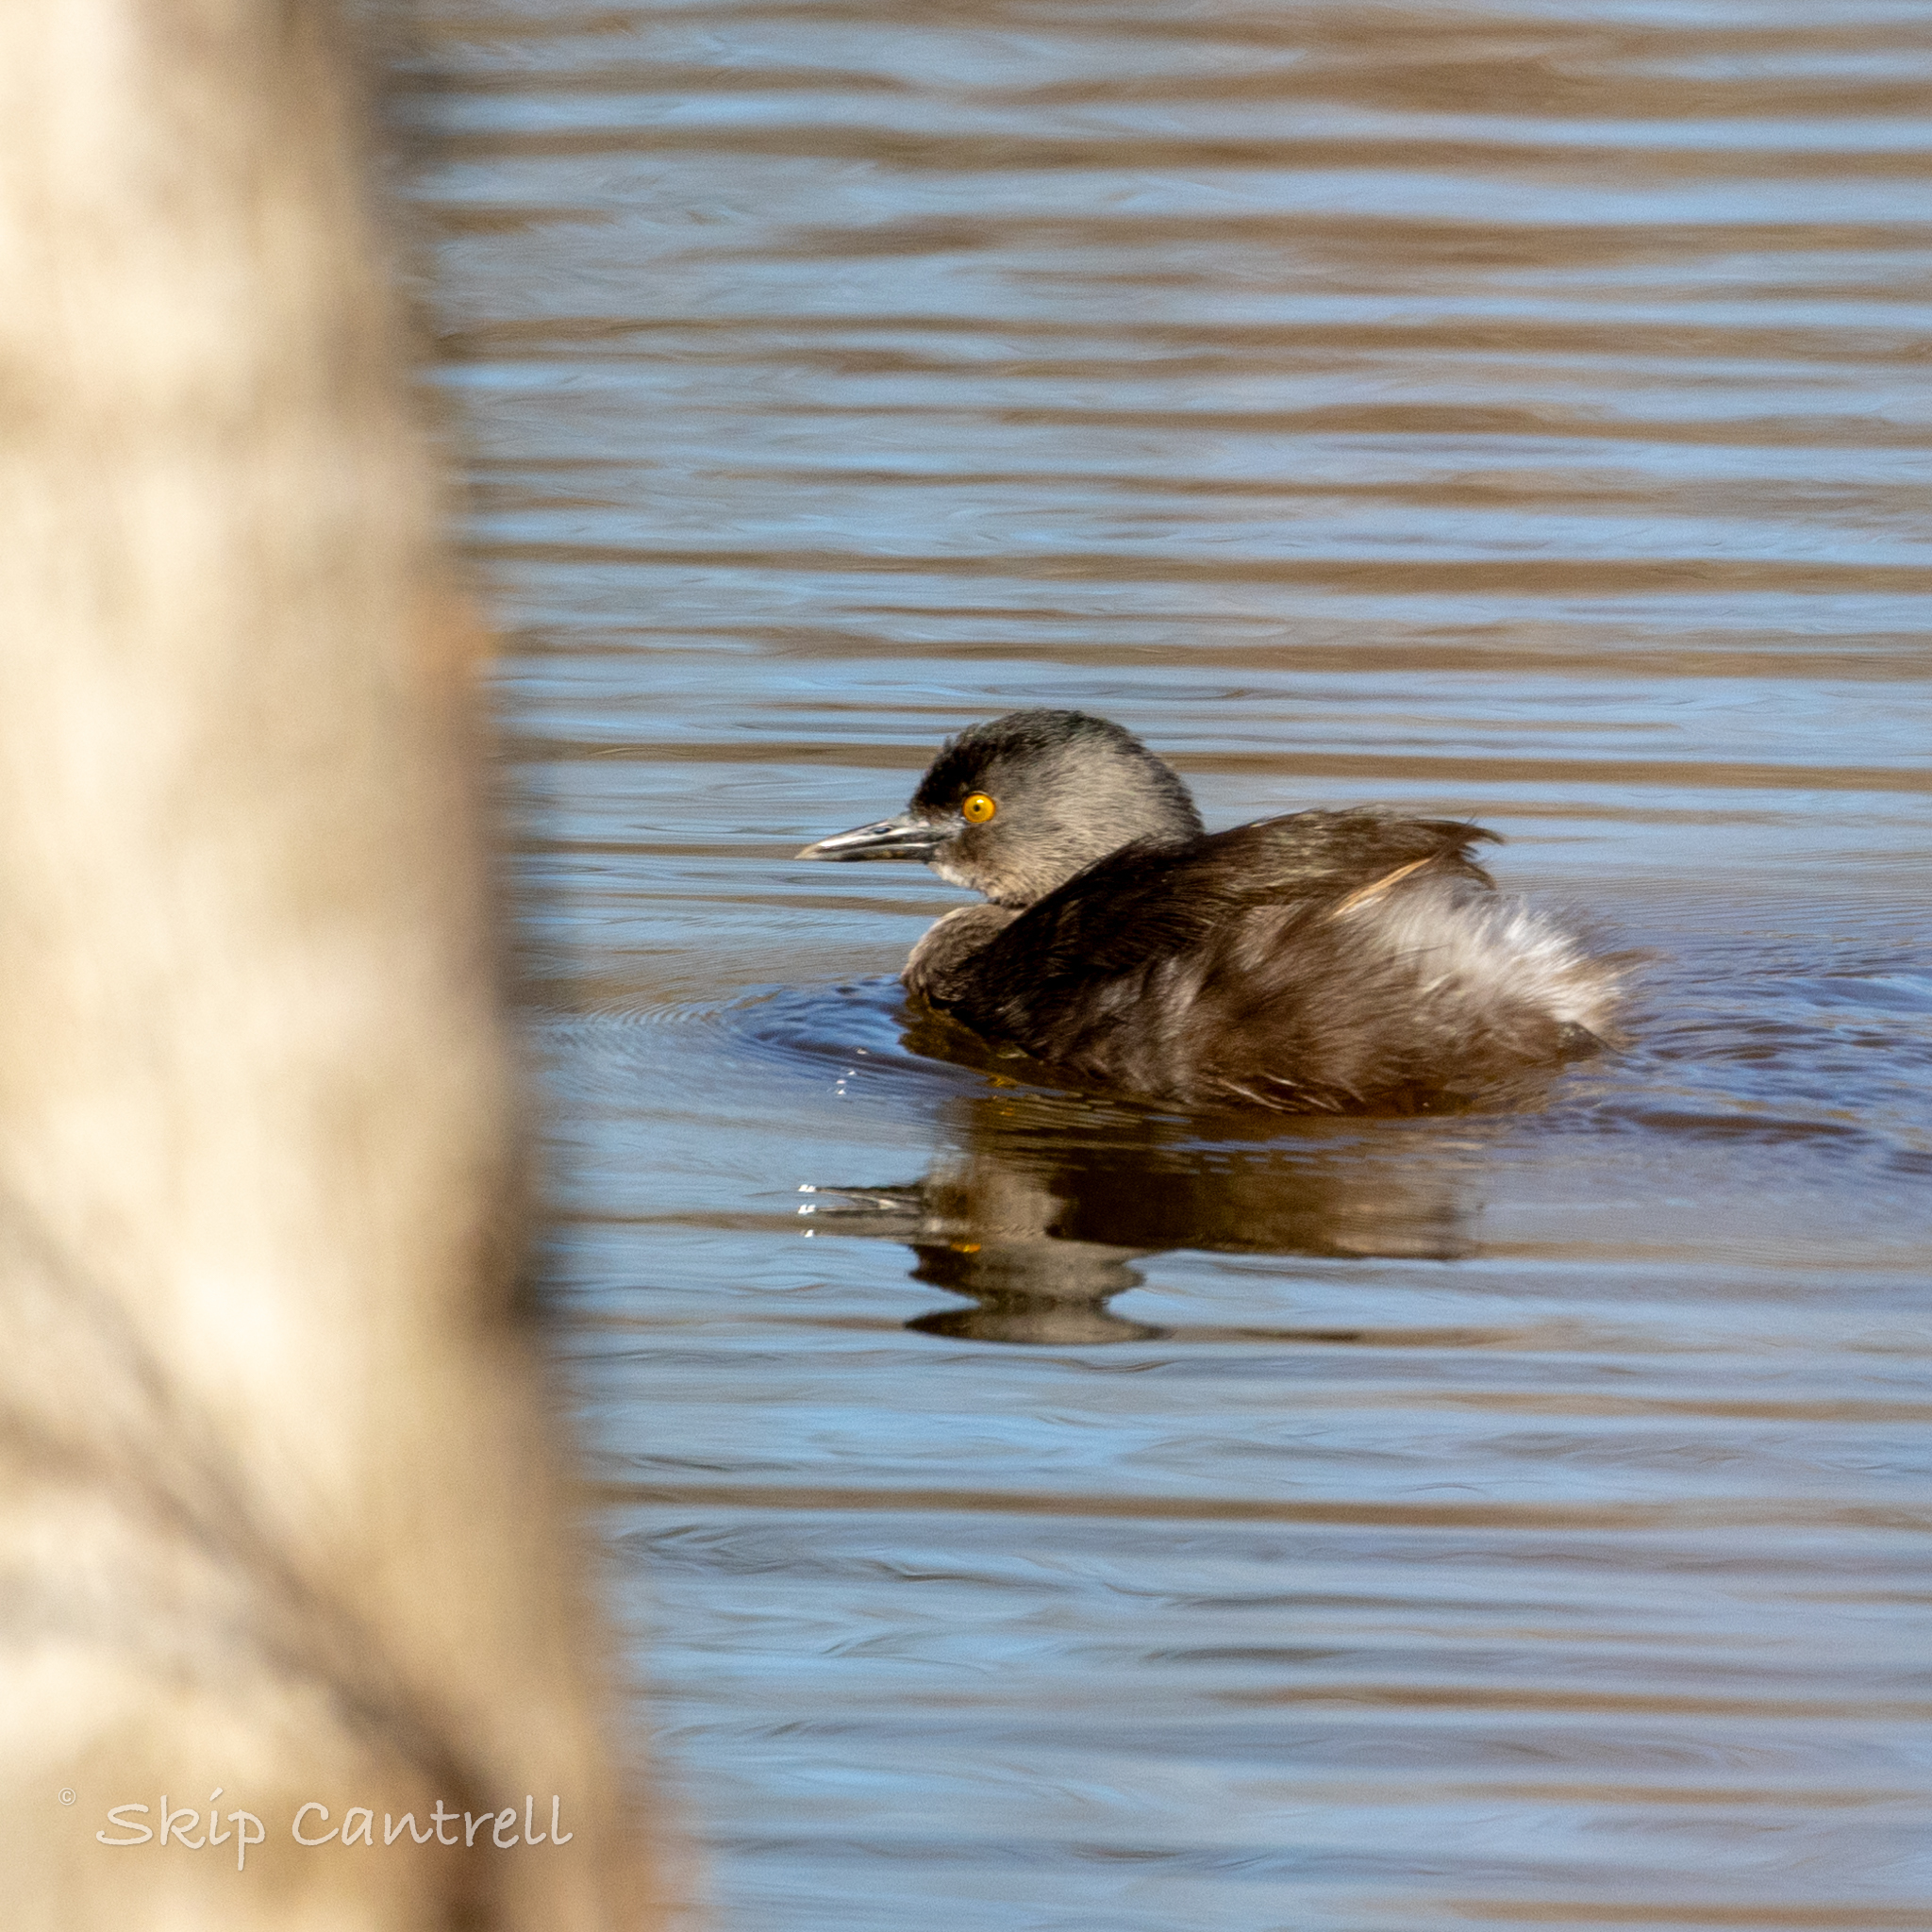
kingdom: Animalia
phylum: Chordata
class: Aves
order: Podicipediformes
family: Podicipedidae
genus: Tachybaptus
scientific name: Tachybaptus dominicus
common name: Least grebe
